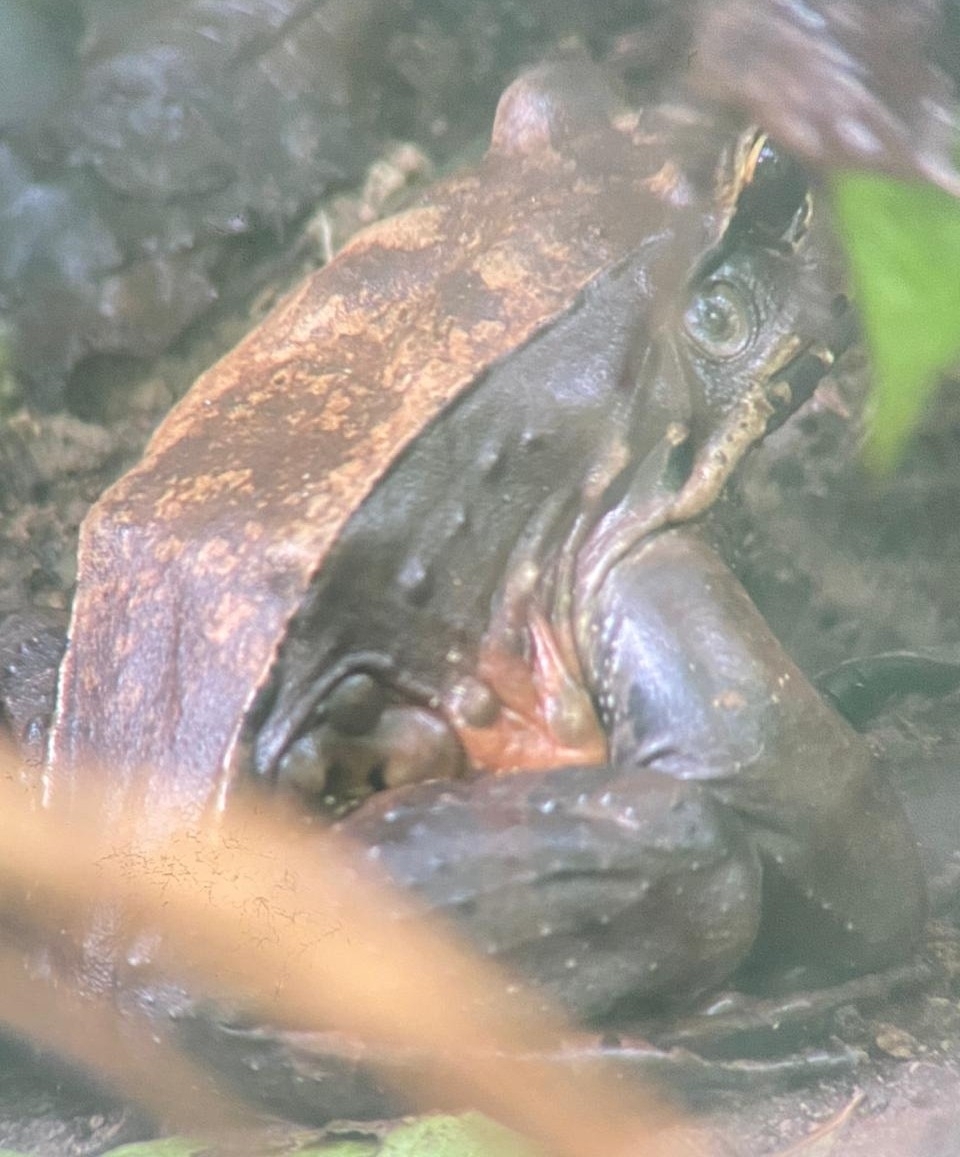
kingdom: Animalia
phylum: Chordata
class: Amphibia
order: Anura
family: Leptodactylidae
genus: Leptodactylus
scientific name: Leptodactylus savagei
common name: Savage's thin-toed frog
